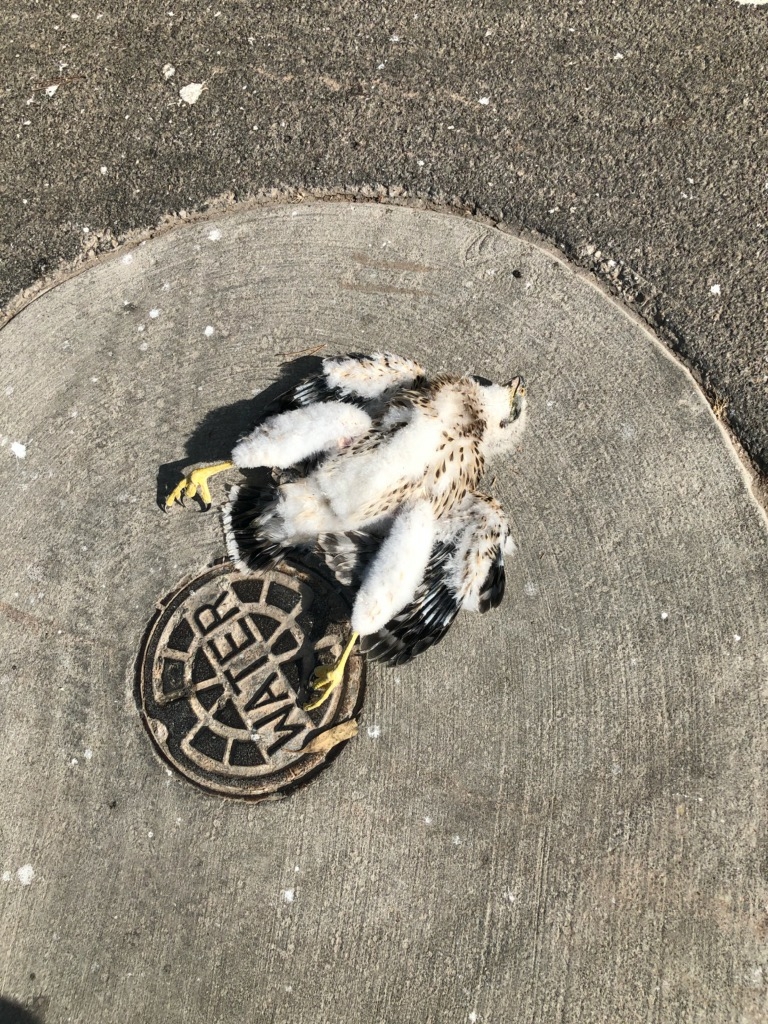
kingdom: Animalia
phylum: Chordata
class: Aves
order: Accipitriformes
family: Accipitridae
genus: Accipiter
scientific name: Accipiter cooperii
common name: Cooper's hawk
